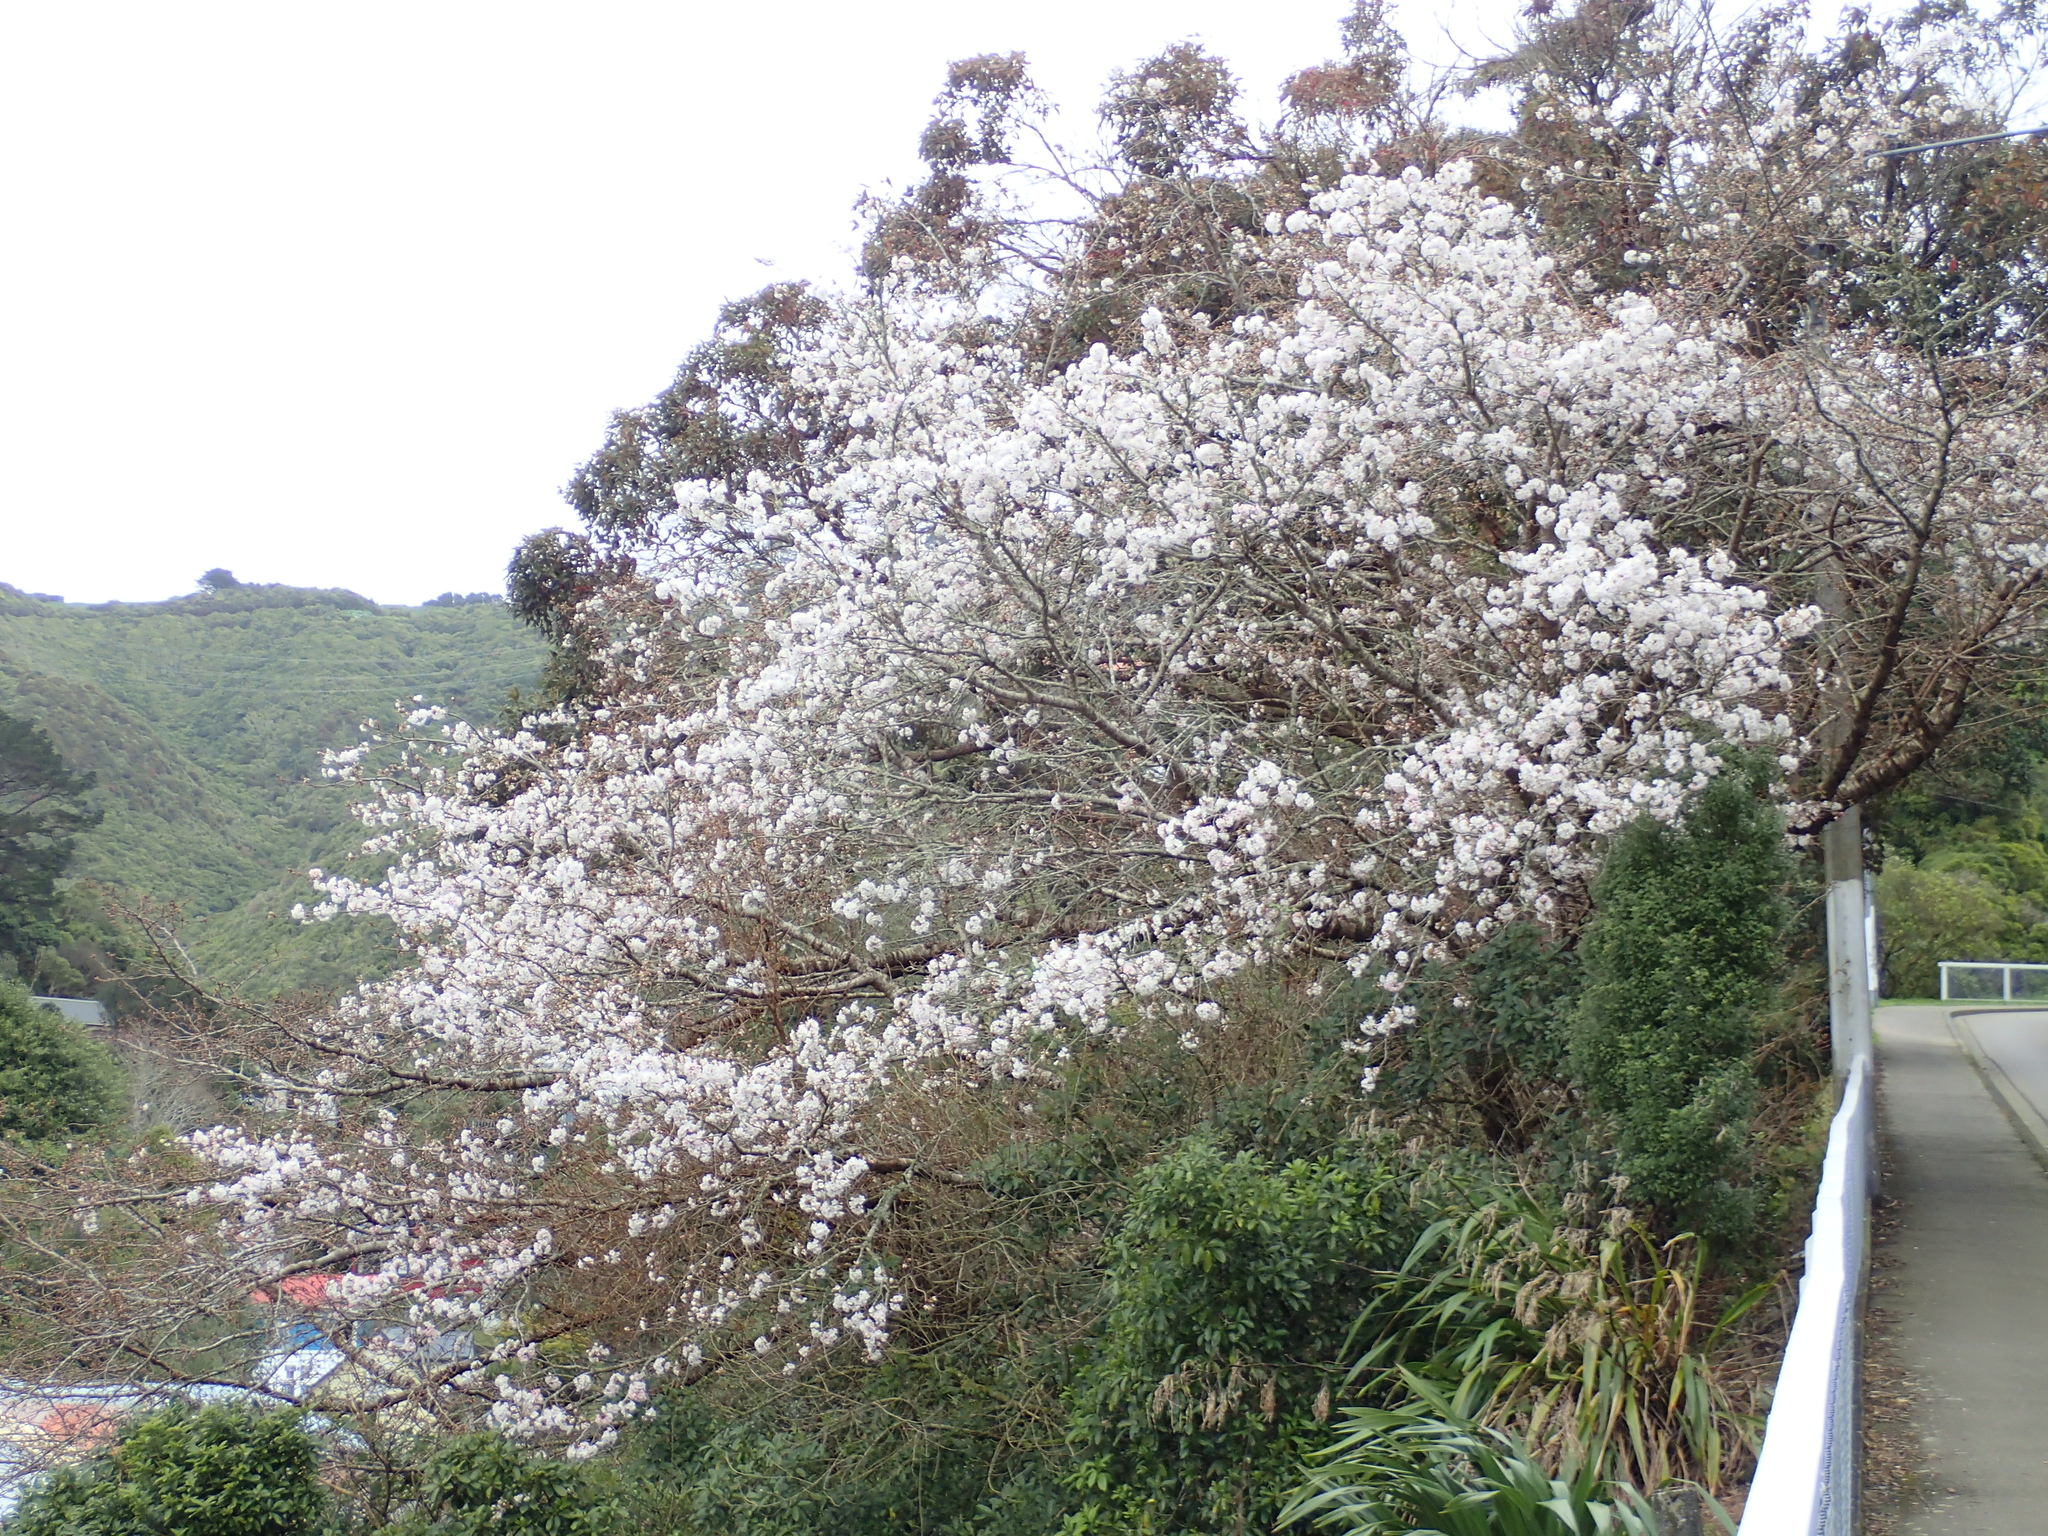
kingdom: Plantae
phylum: Tracheophyta
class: Magnoliopsida
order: Rosales
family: Rosaceae
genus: Prunus
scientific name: Prunus serrulata
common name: Japanese cherry
